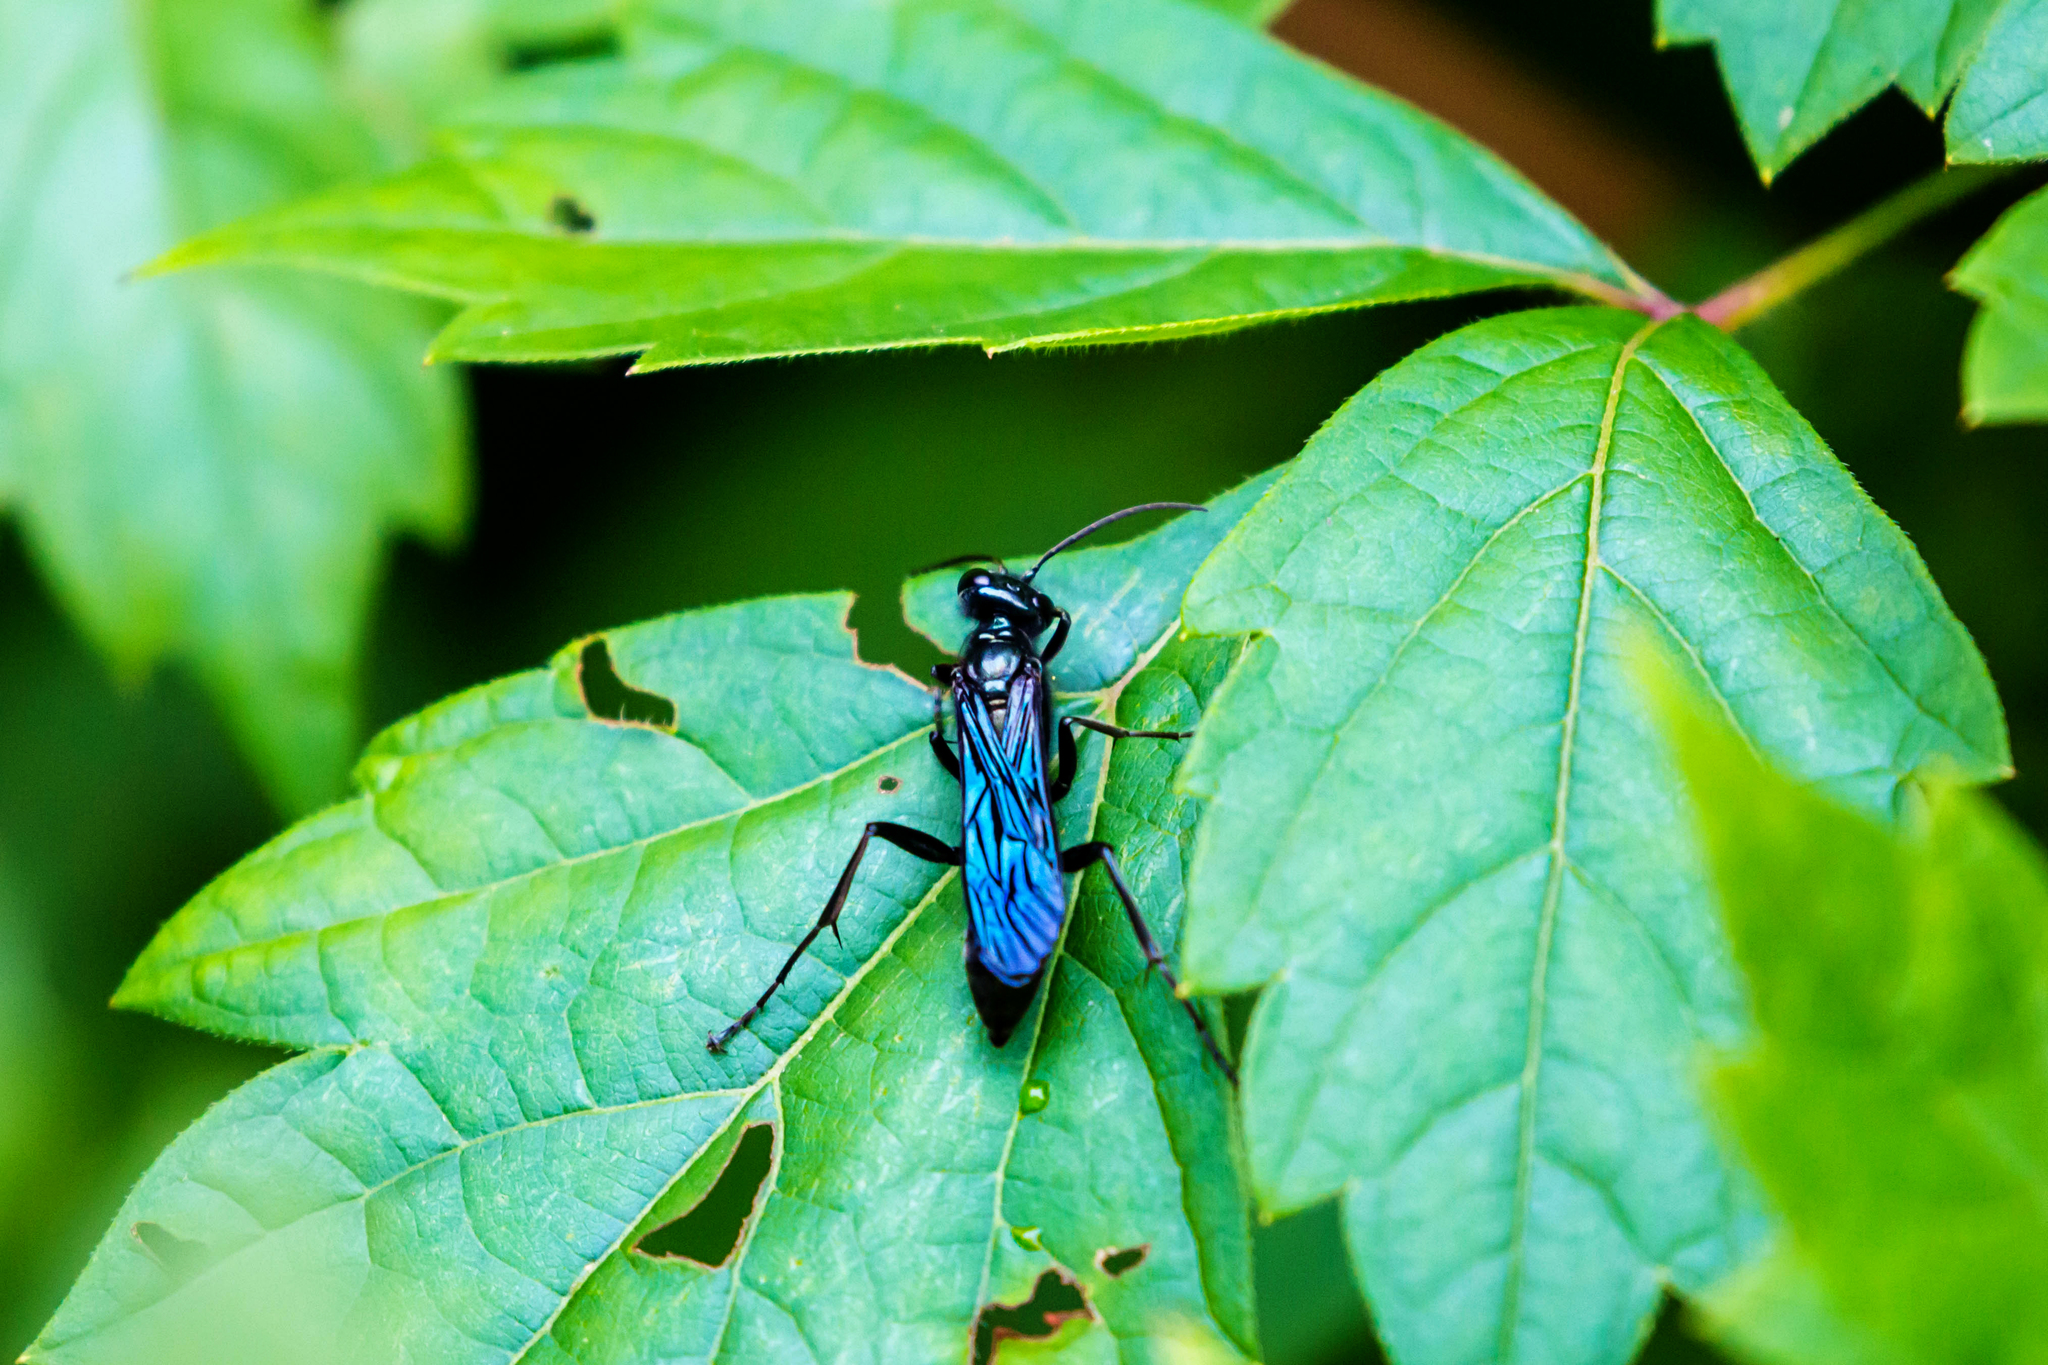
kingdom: Animalia
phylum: Arthropoda
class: Insecta
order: Hymenoptera
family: Sphecidae
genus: Chalybion
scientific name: Chalybion californicum
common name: Mud dauber
